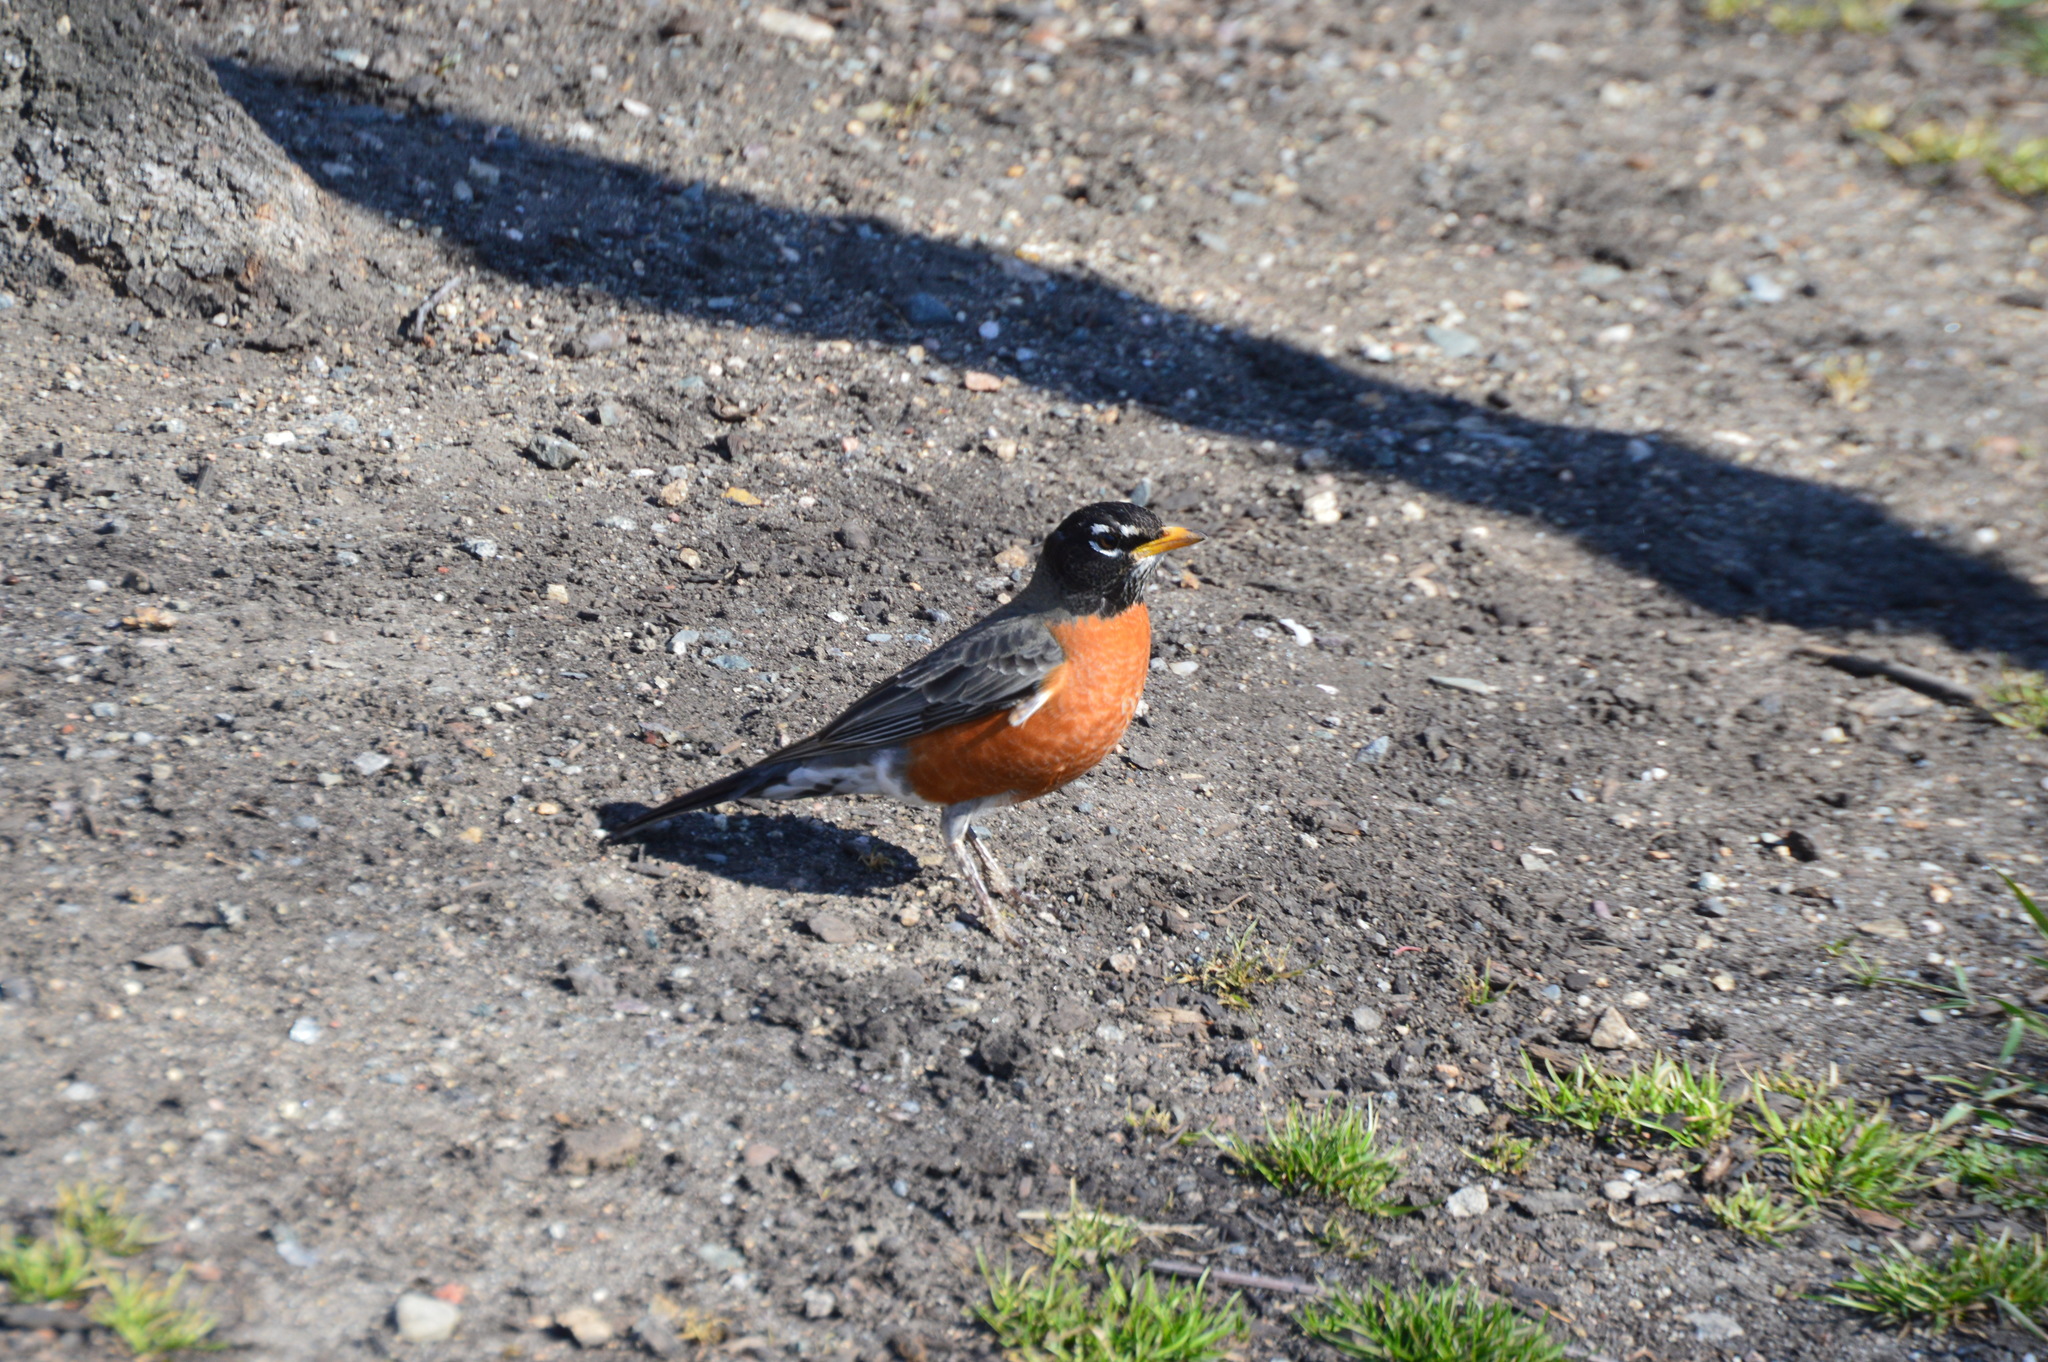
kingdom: Animalia
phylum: Chordata
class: Aves
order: Passeriformes
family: Turdidae
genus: Turdus
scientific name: Turdus migratorius
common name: American robin
